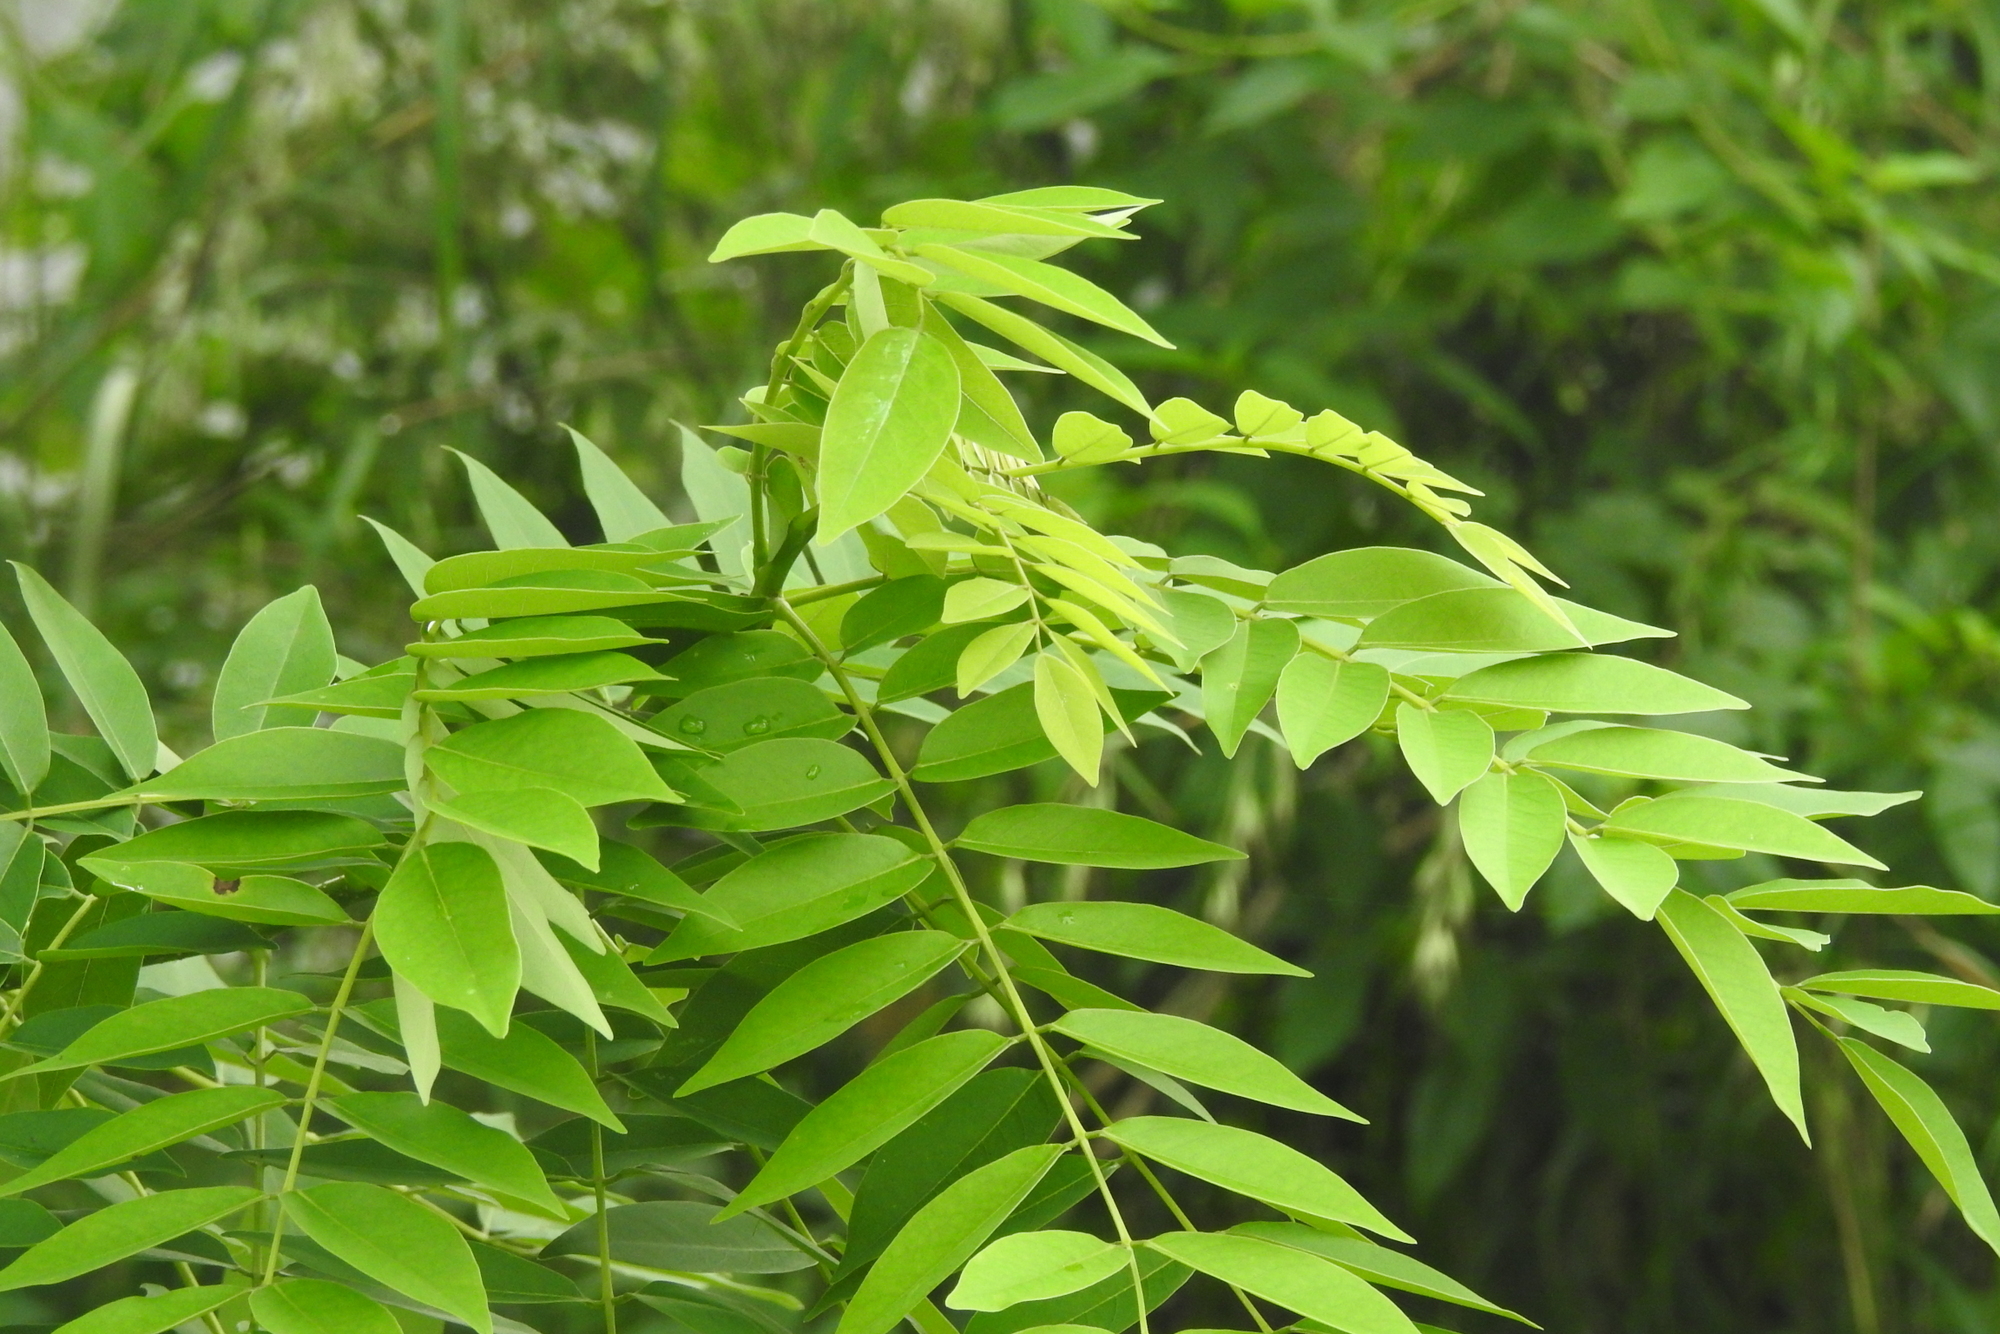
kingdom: Plantae
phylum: Tracheophyta
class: Magnoliopsida
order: Fabales
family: Fabaceae
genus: Gliricidia
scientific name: Gliricidia sepium
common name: Quickstick
